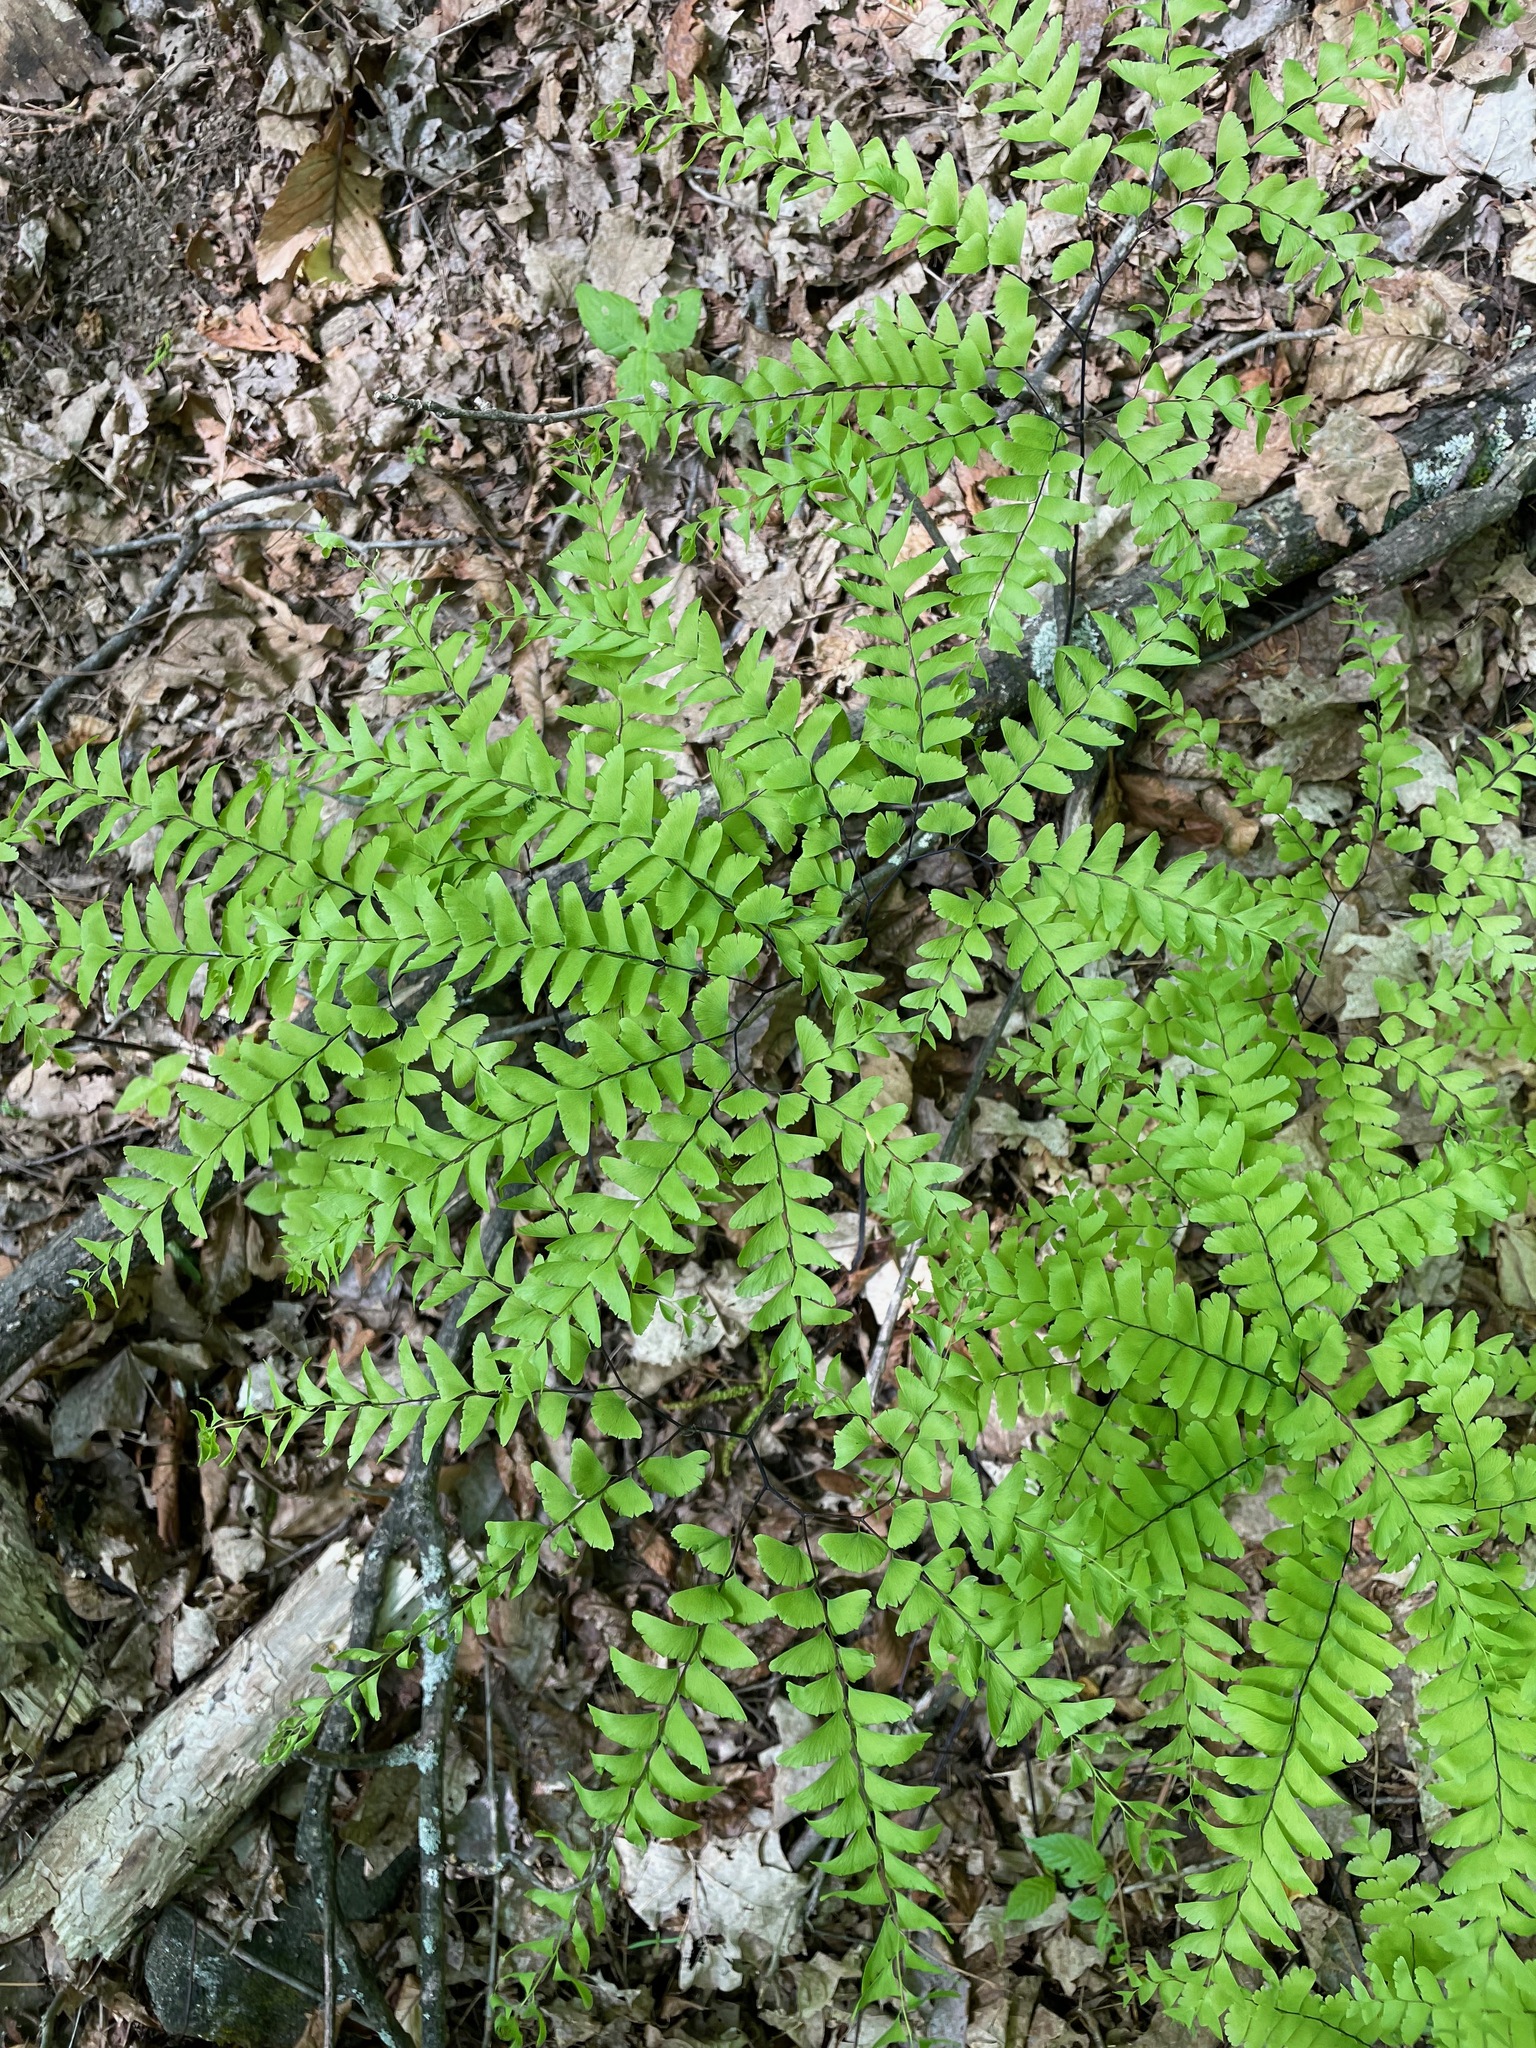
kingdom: Plantae
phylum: Tracheophyta
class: Polypodiopsida
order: Polypodiales
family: Pteridaceae
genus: Adiantum
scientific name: Adiantum pedatum
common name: Five-finger fern
